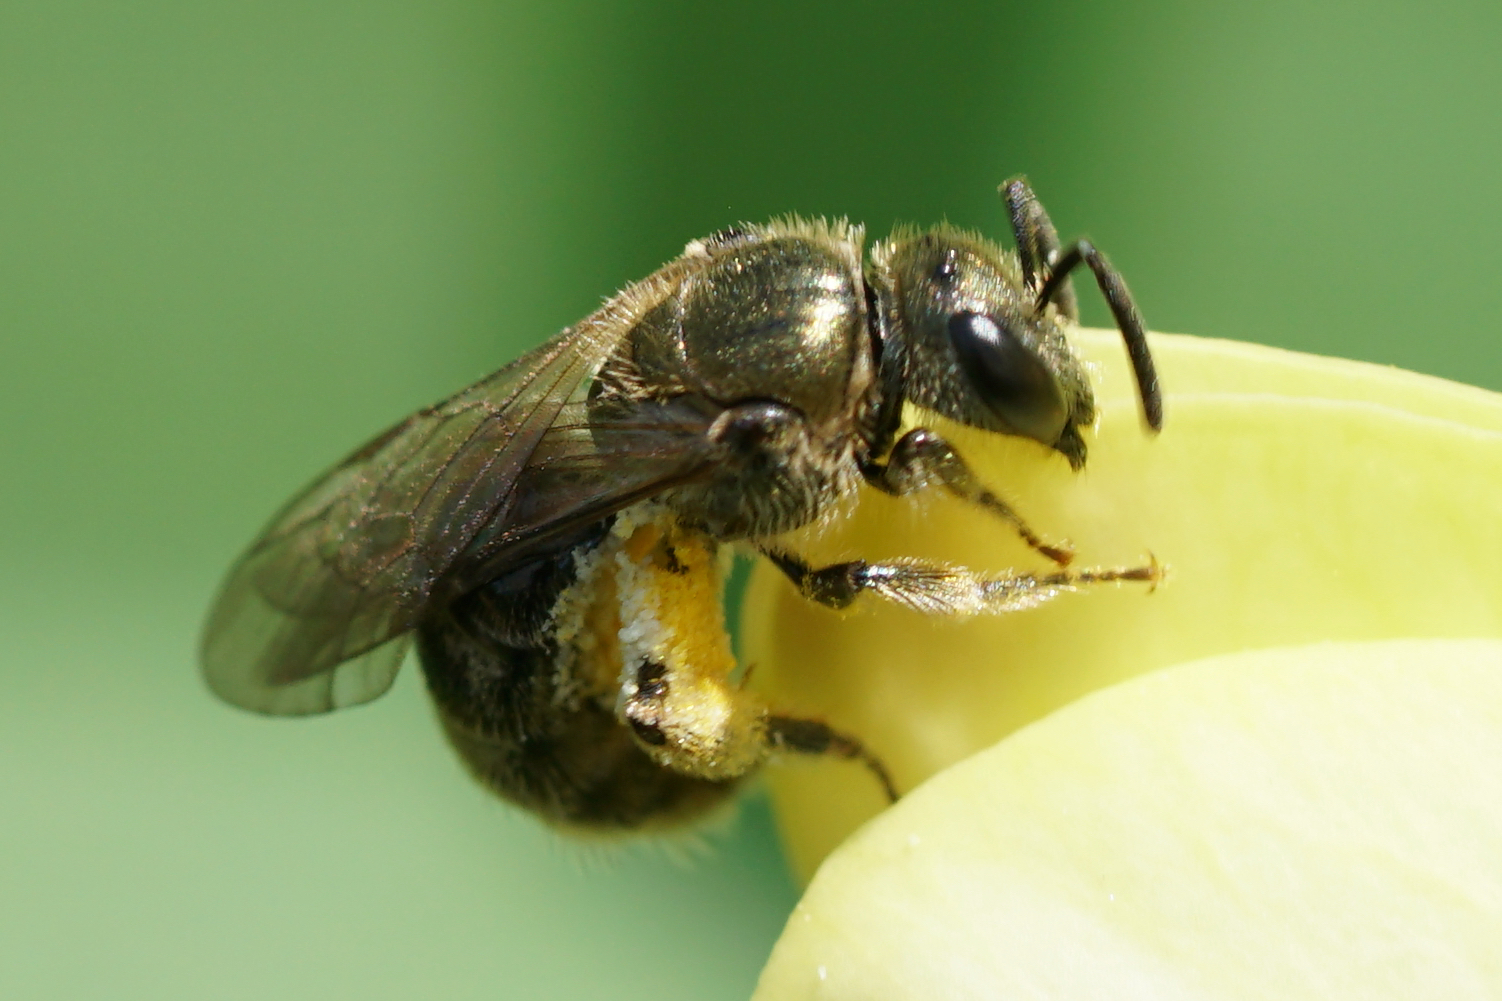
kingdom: Animalia
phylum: Arthropoda
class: Insecta
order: Hymenoptera
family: Halictidae
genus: Dialictus
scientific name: Dialictus
